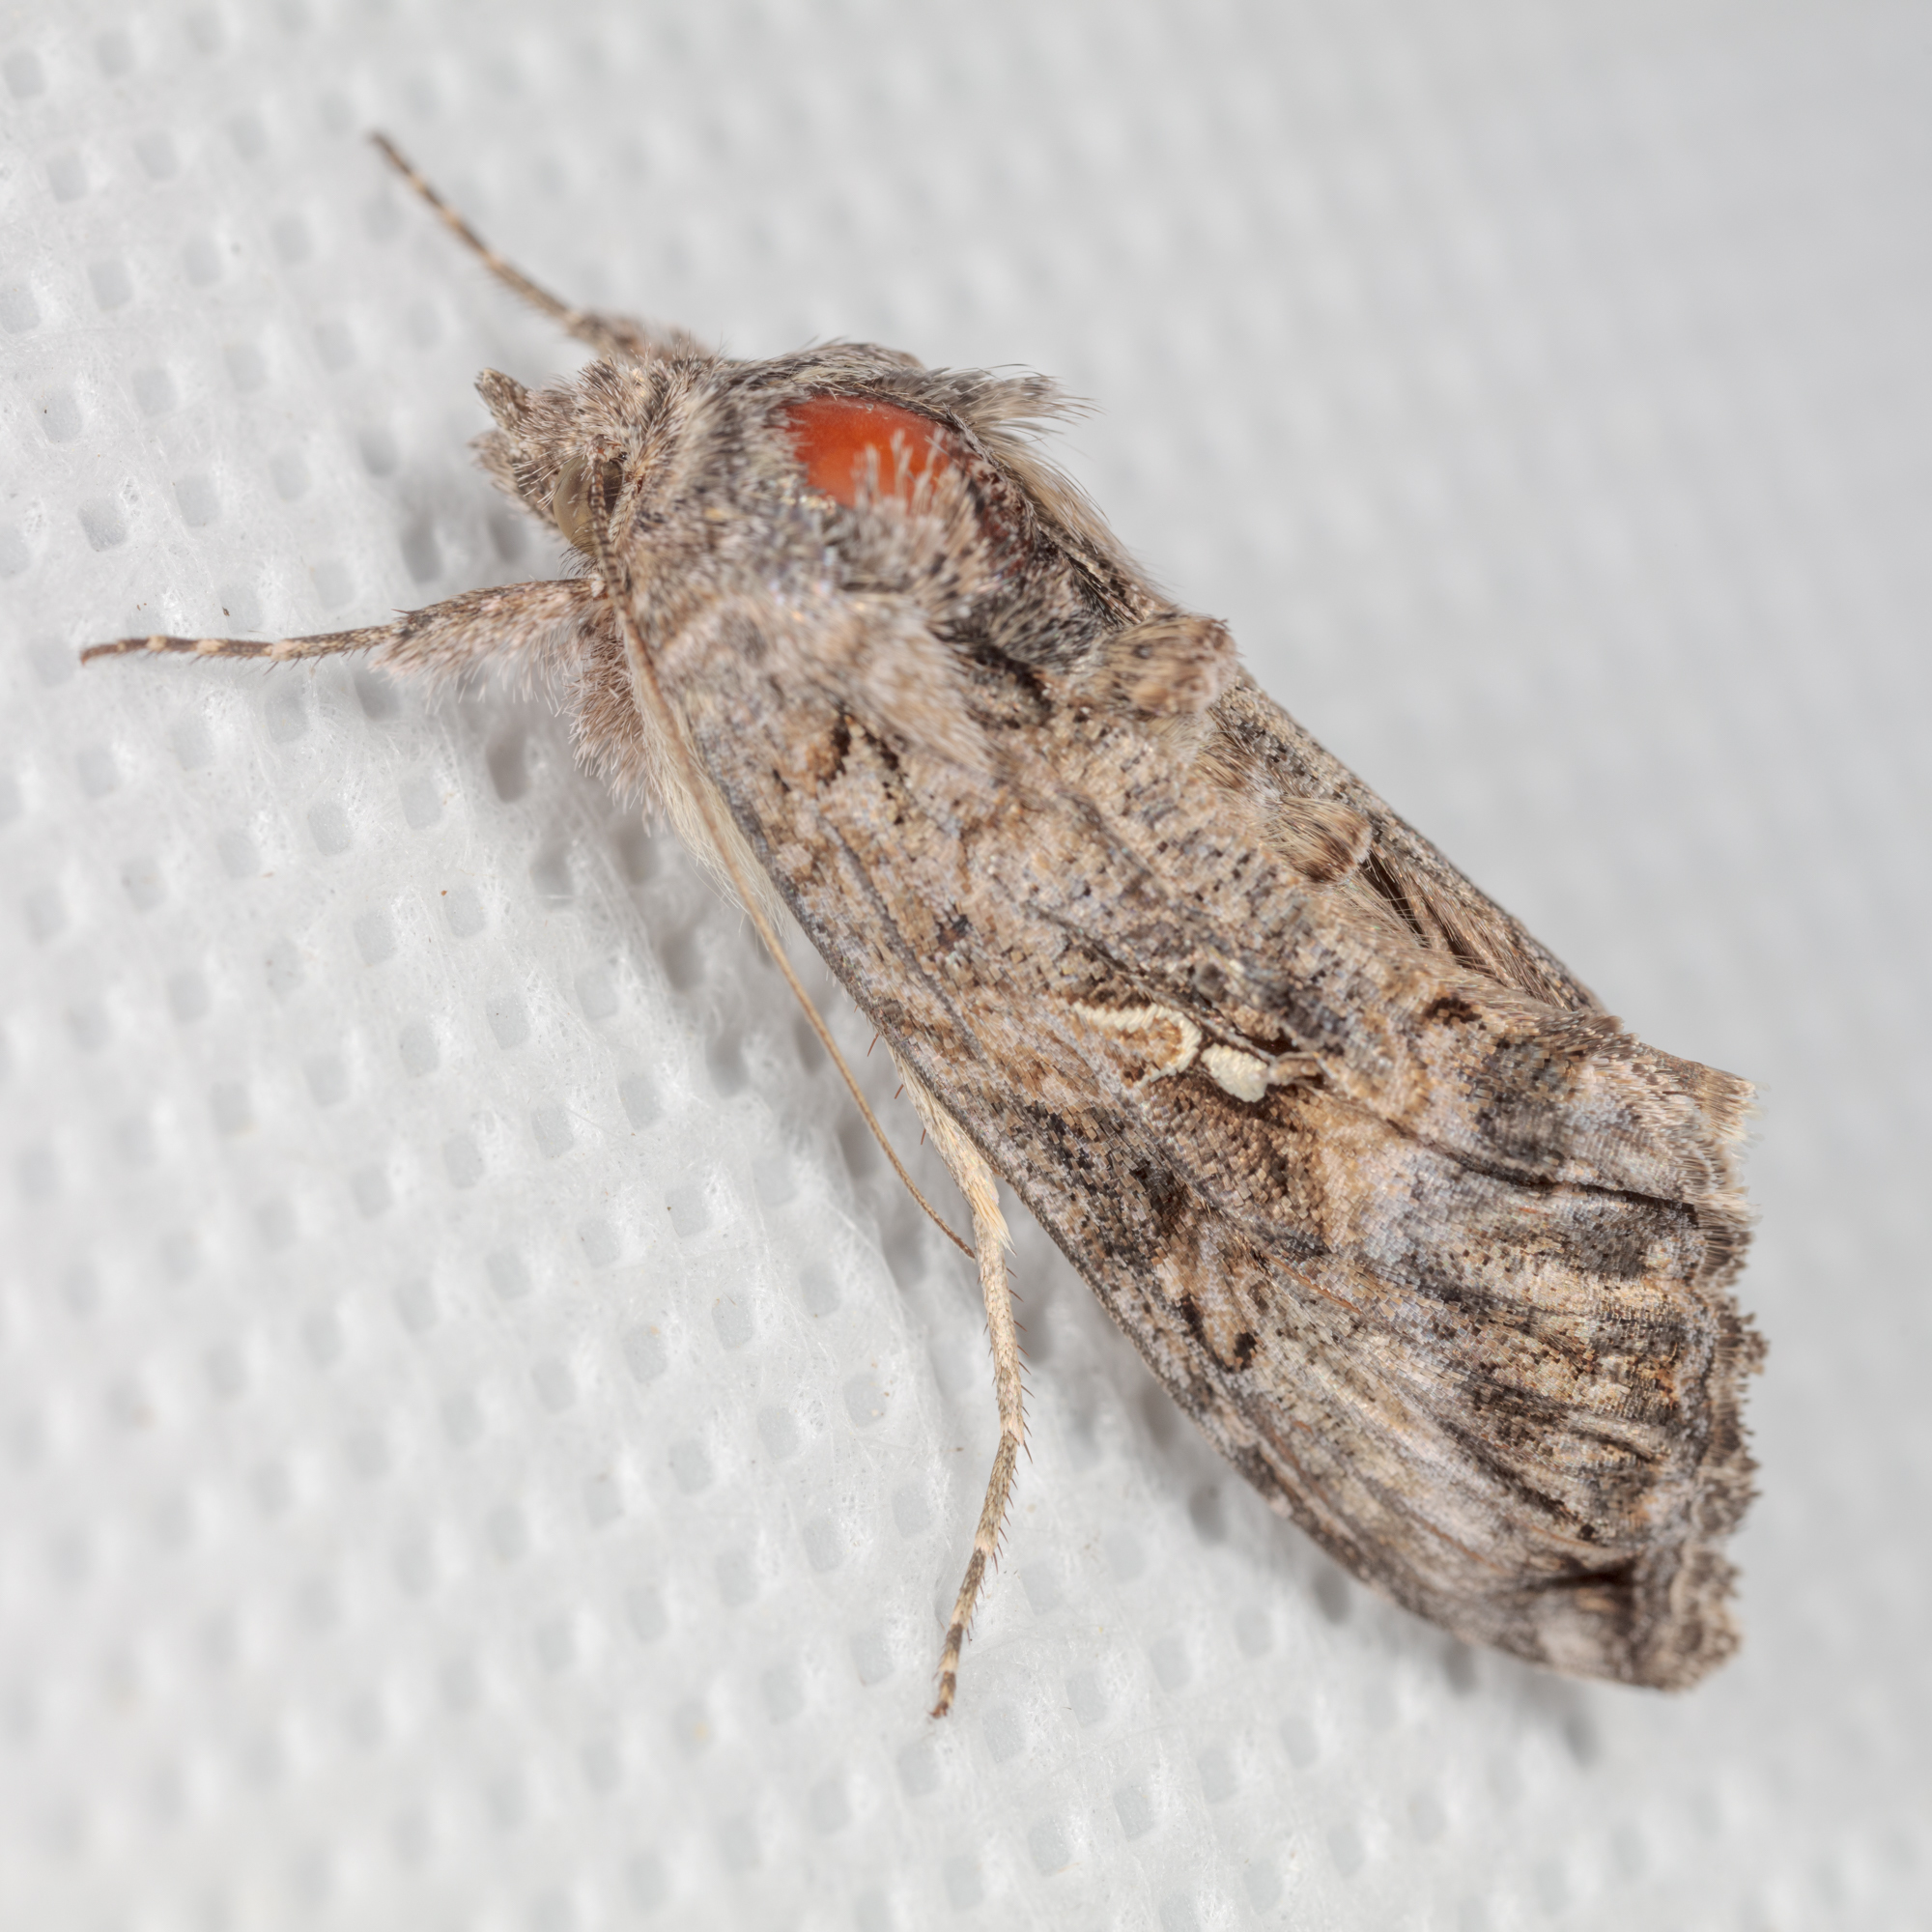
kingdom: Animalia
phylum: Arthropoda
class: Insecta
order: Lepidoptera
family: Noctuidae
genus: Rachiplusia
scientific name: Rachiplusia ou
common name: Gray looper moth
